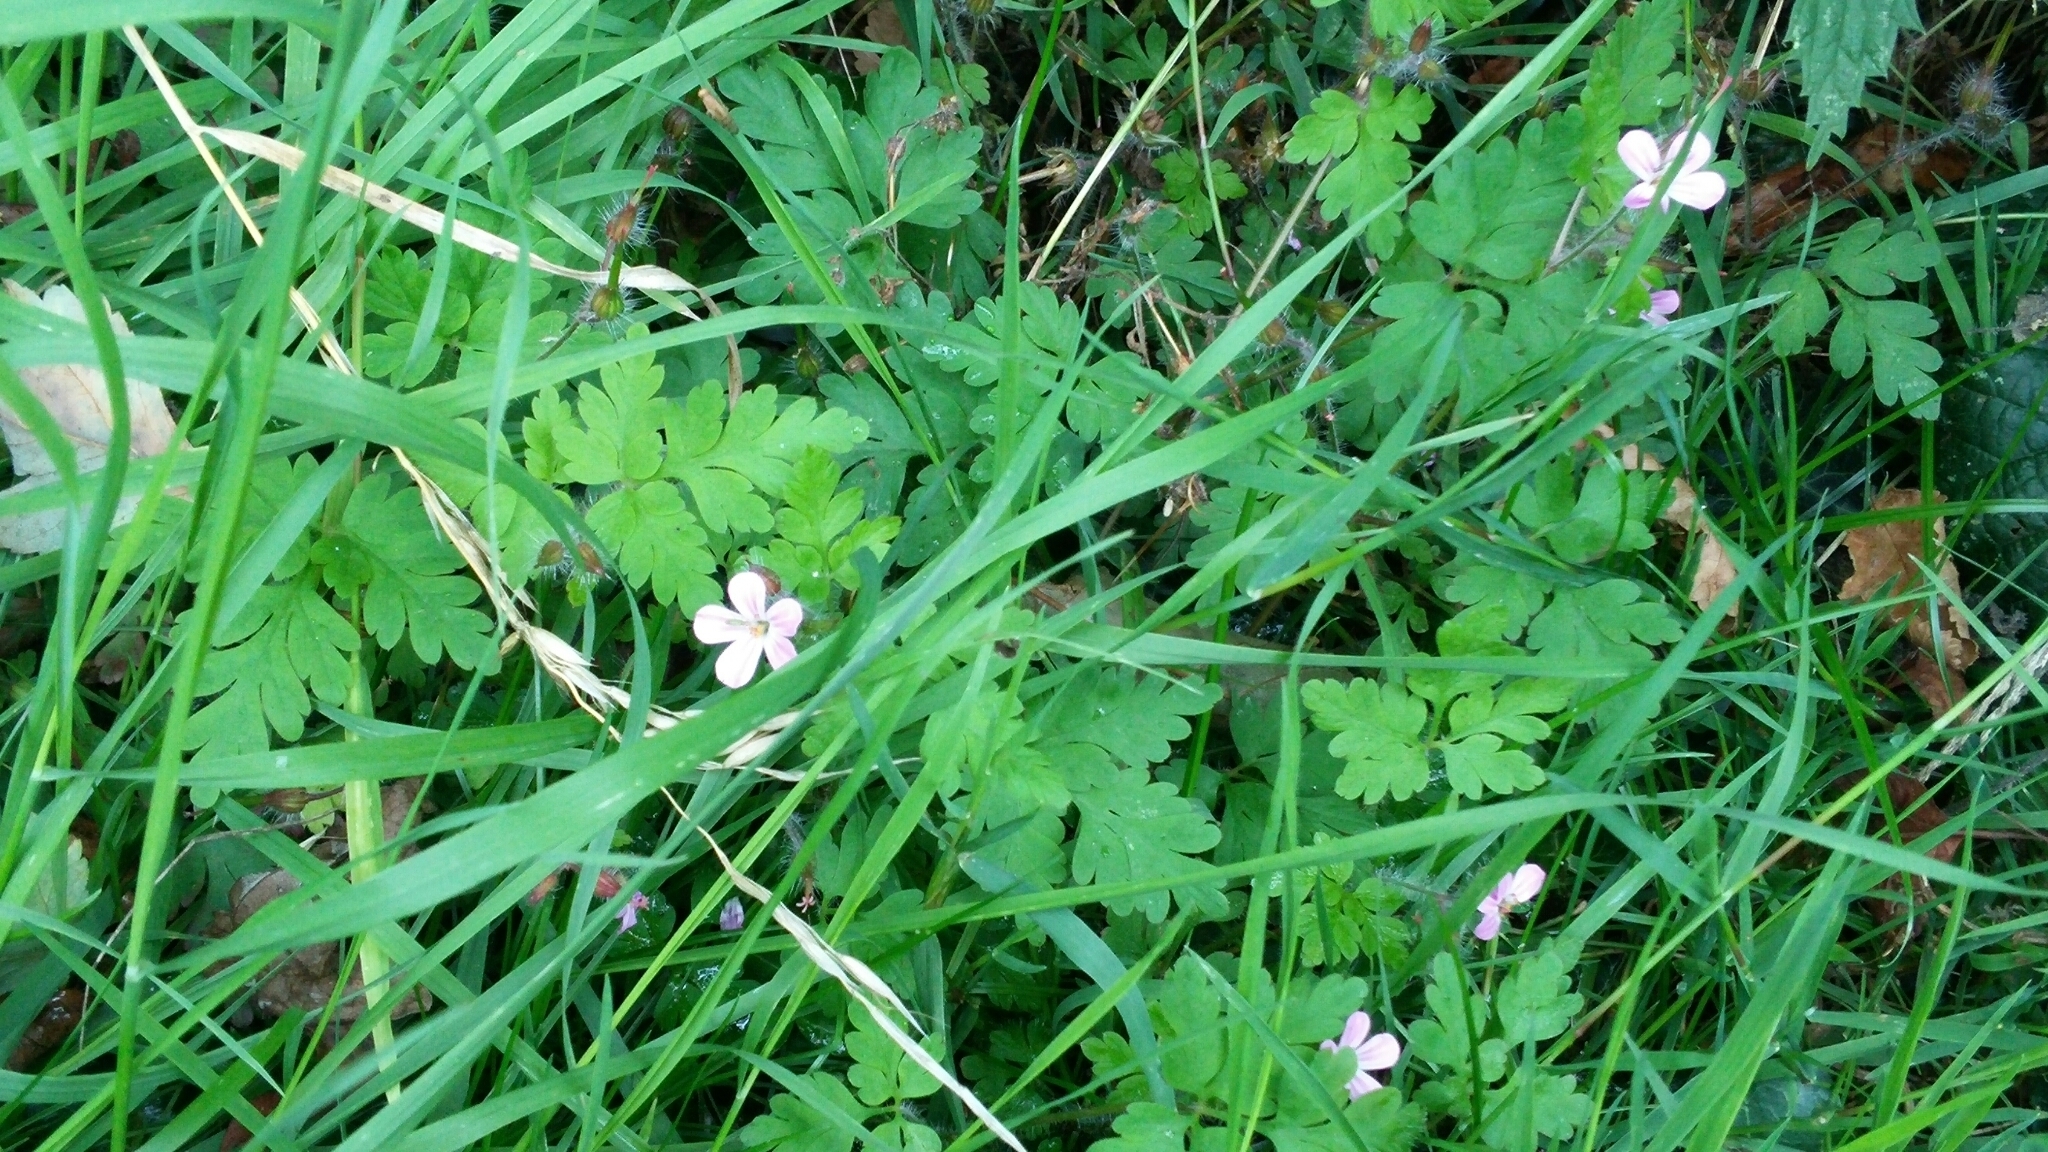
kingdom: Plantae
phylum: Tracheophyta
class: Magnoliopsida
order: Geraniales
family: Geraniaceae
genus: Geranium
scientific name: Geranium robertianum
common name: Herb-robert
